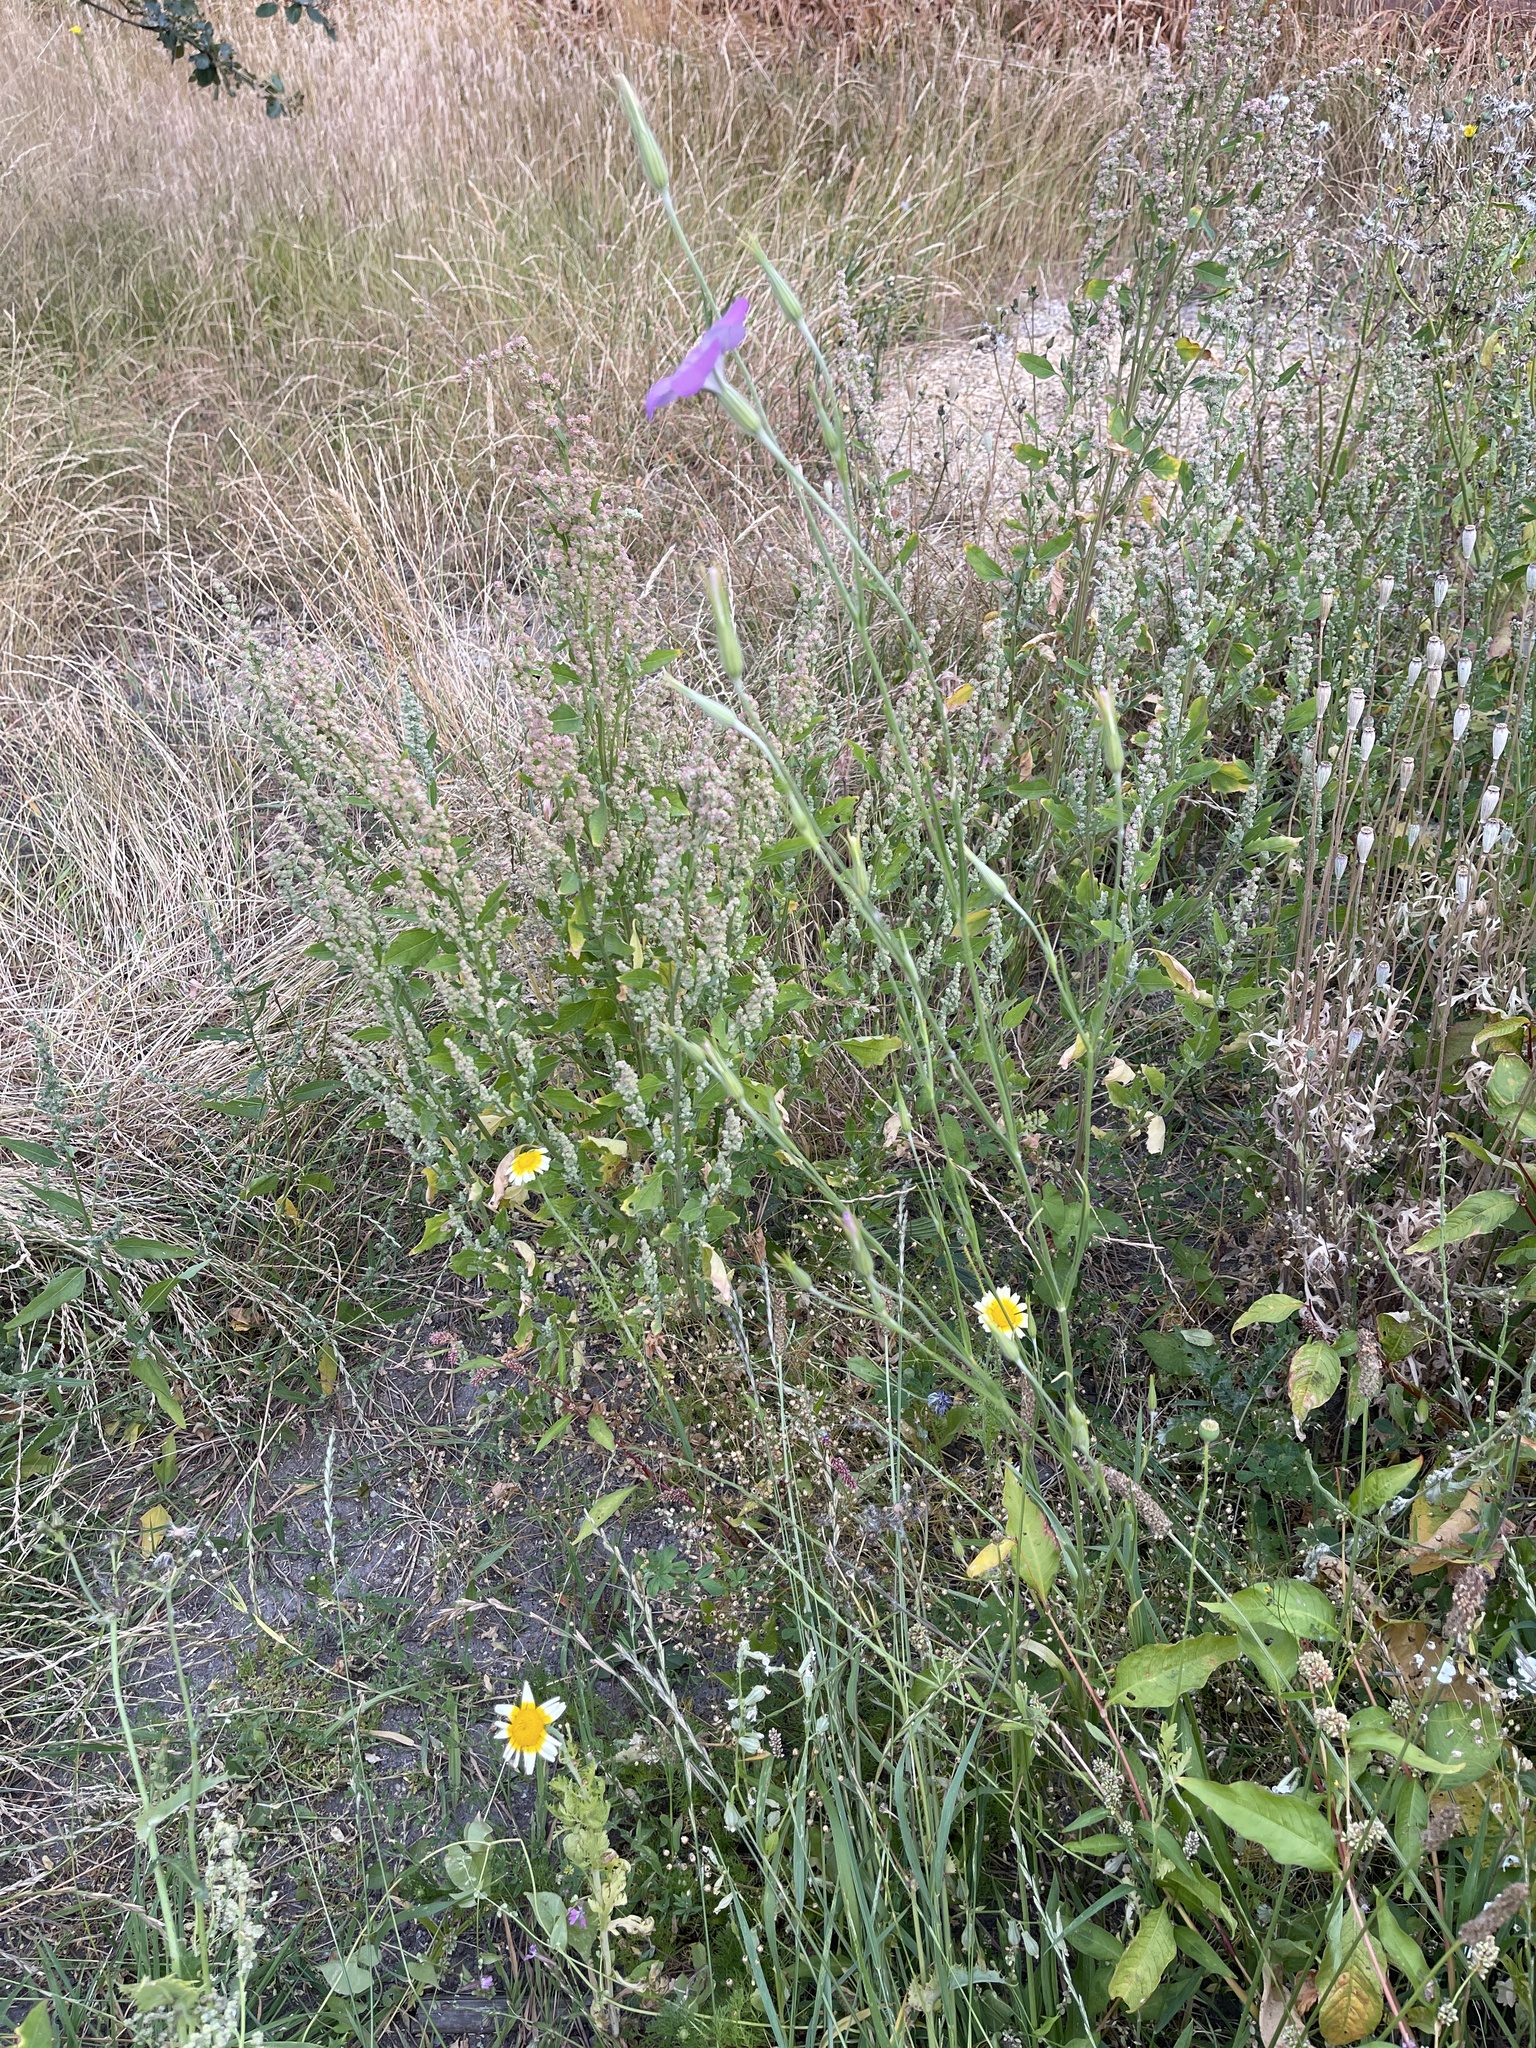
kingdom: Plantae
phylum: Tracheophyta
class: Magnoliopsida
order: Caryophyllales
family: Caryophyllaceae
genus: Agrostemma
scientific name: Agrostemma brachyloba
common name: Narrow corncockle
